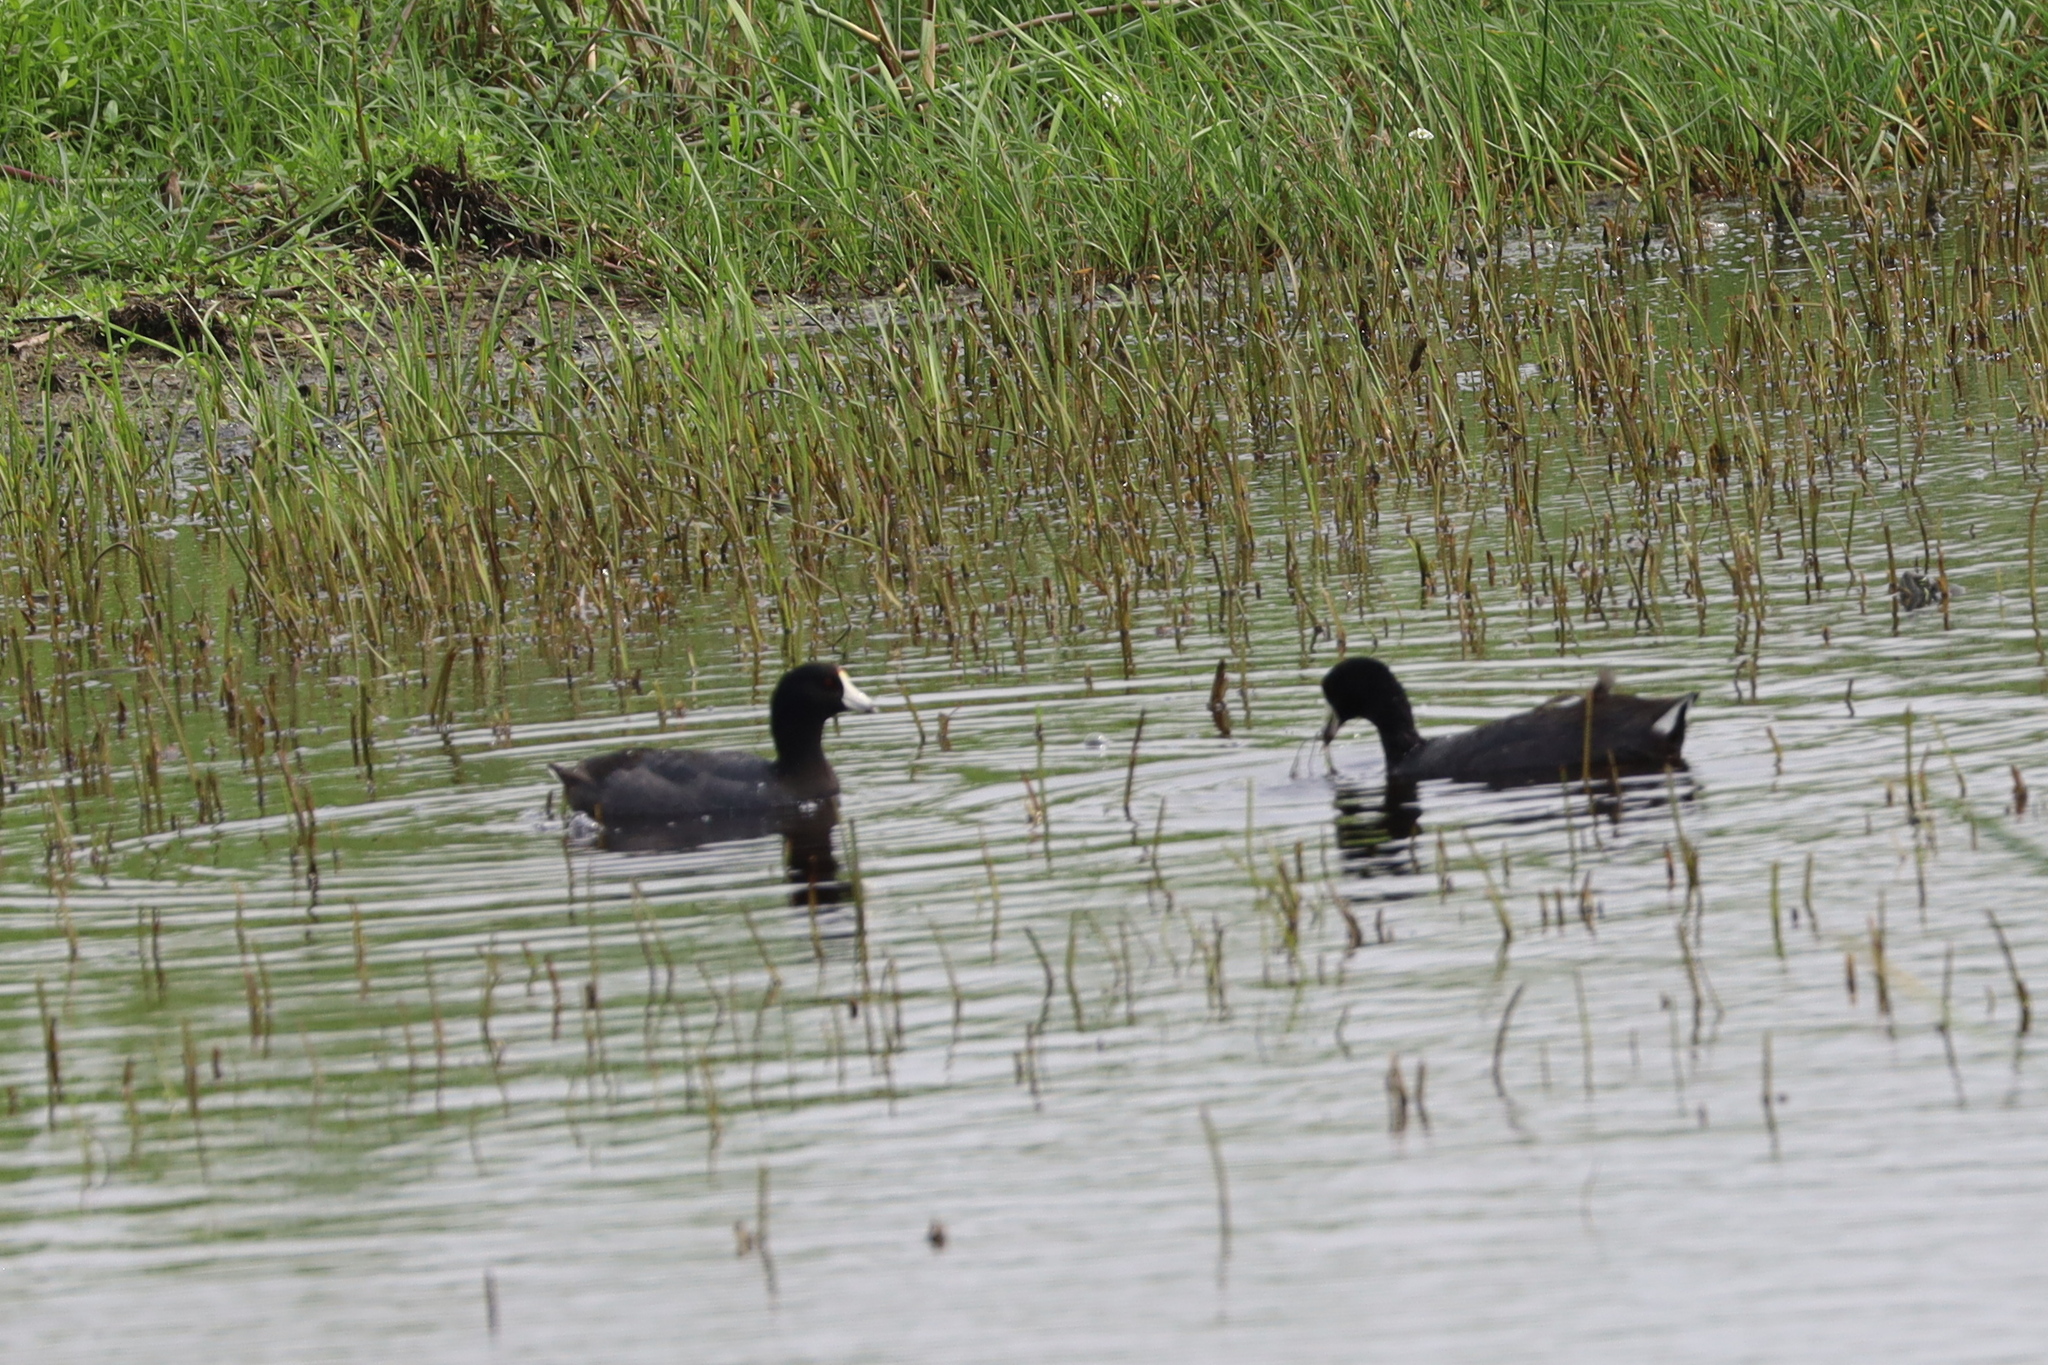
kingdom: Animalia
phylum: Chordata
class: Aves
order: Gruiformes
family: Rallidae
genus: Fulica
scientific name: Fulica americana
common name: American coot
